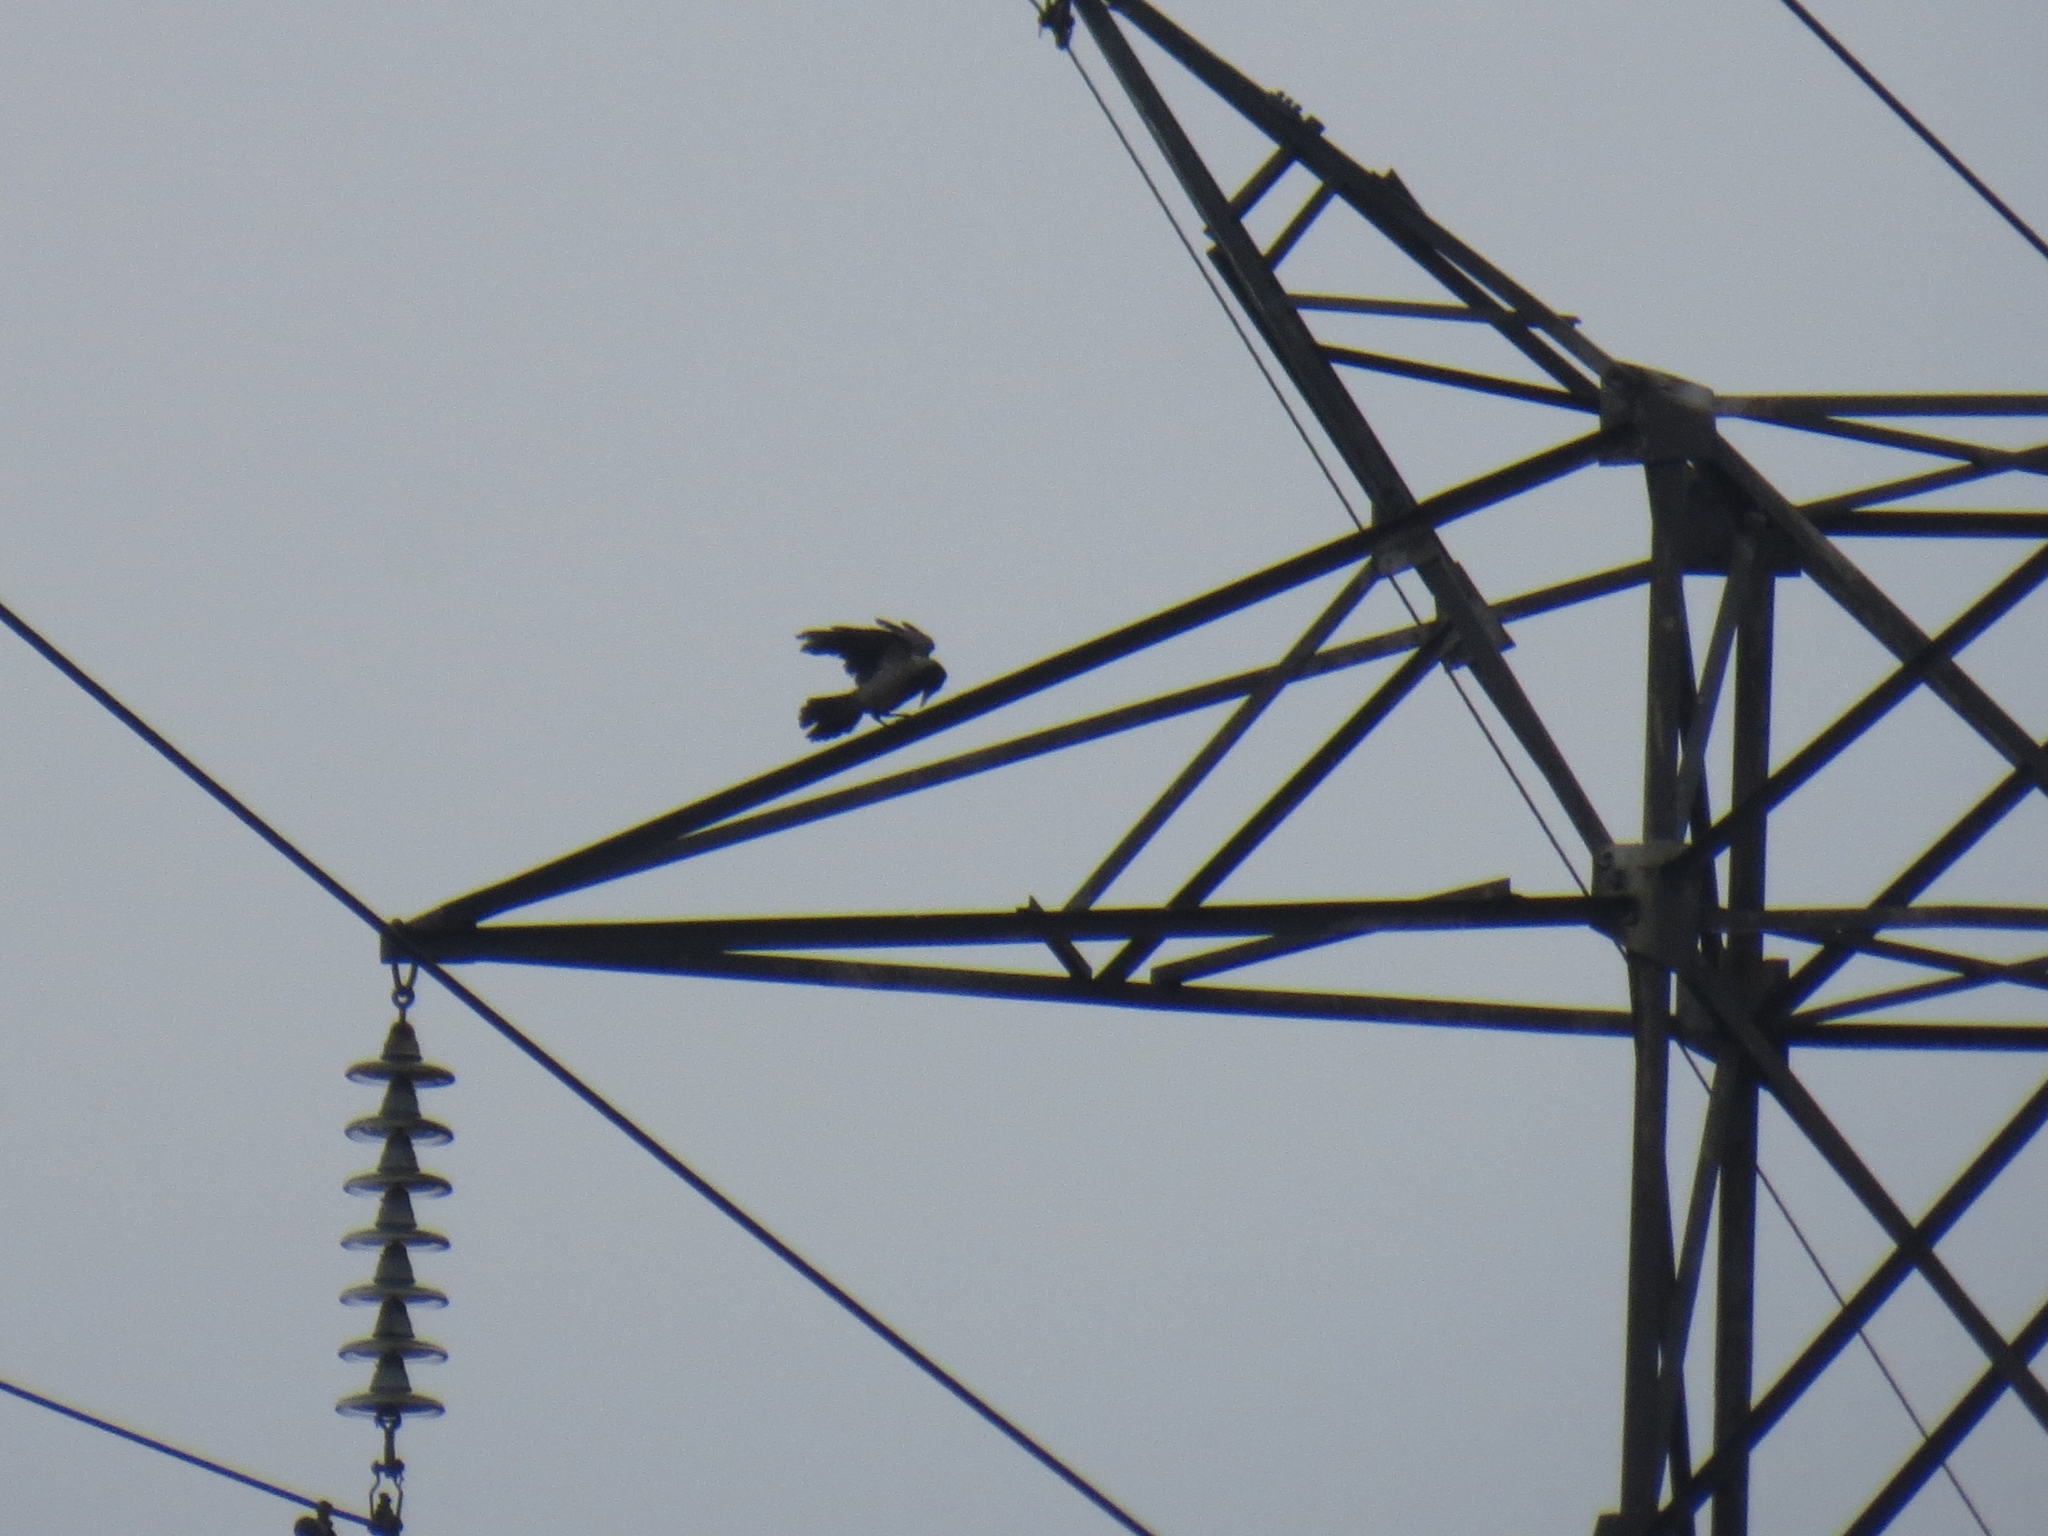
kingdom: Animalia
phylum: Chordata
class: Aves
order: Passeriformes
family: Corvidae
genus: Corvus
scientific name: Corvus cornix
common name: Hooded crow
